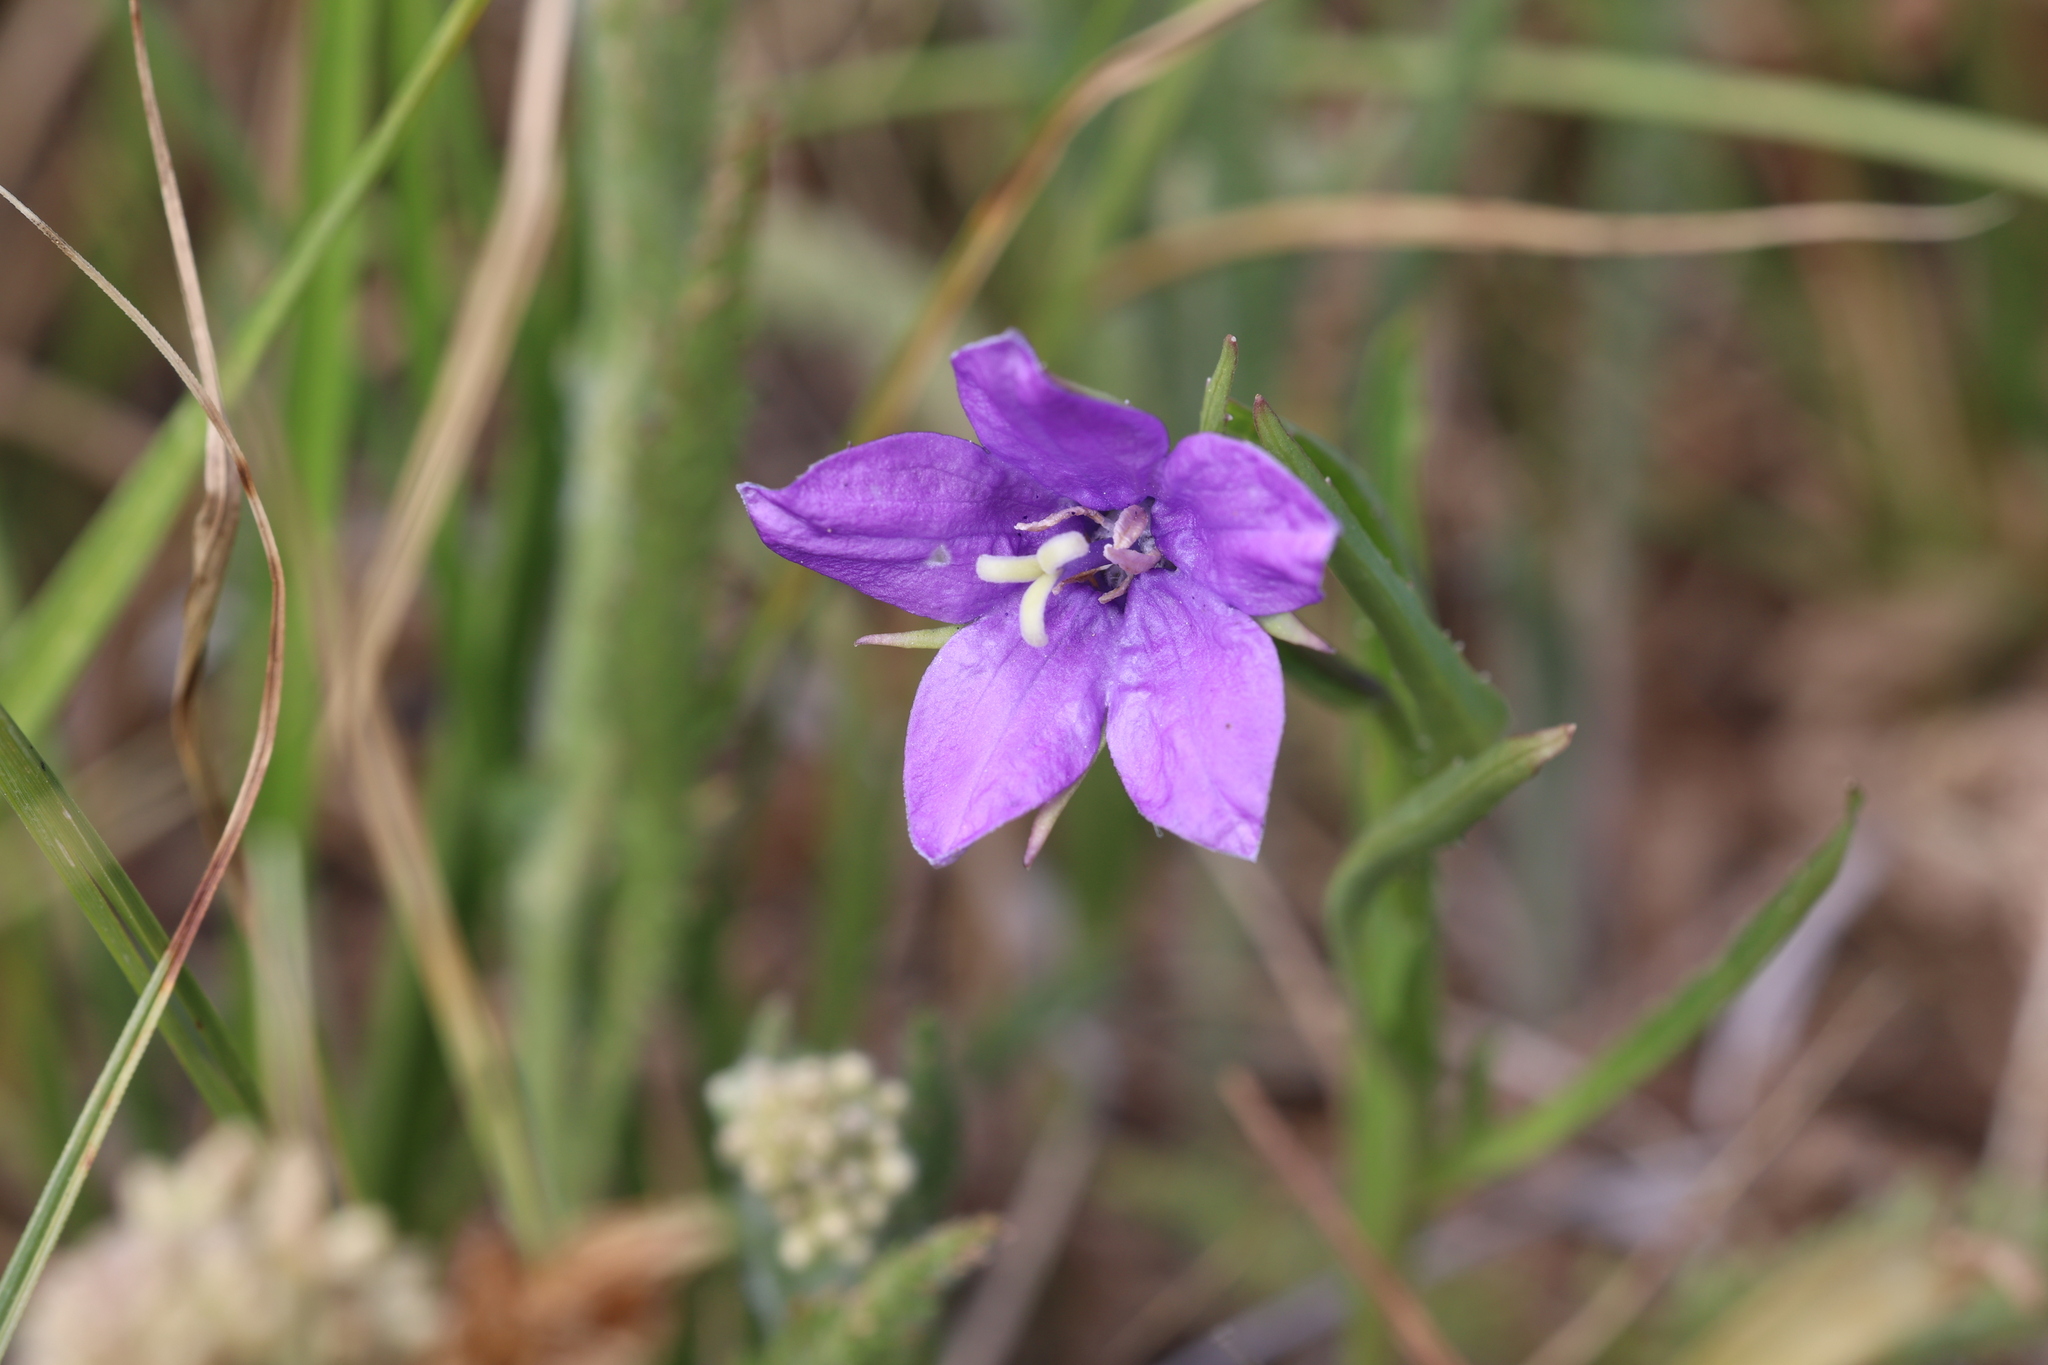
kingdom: Plantae
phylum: Tracheophyta
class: Magnoliopsida
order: Asterales
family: Campanulaceae
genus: Campanula
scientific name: Campanula parryi
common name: Rocky mountain bellflower
